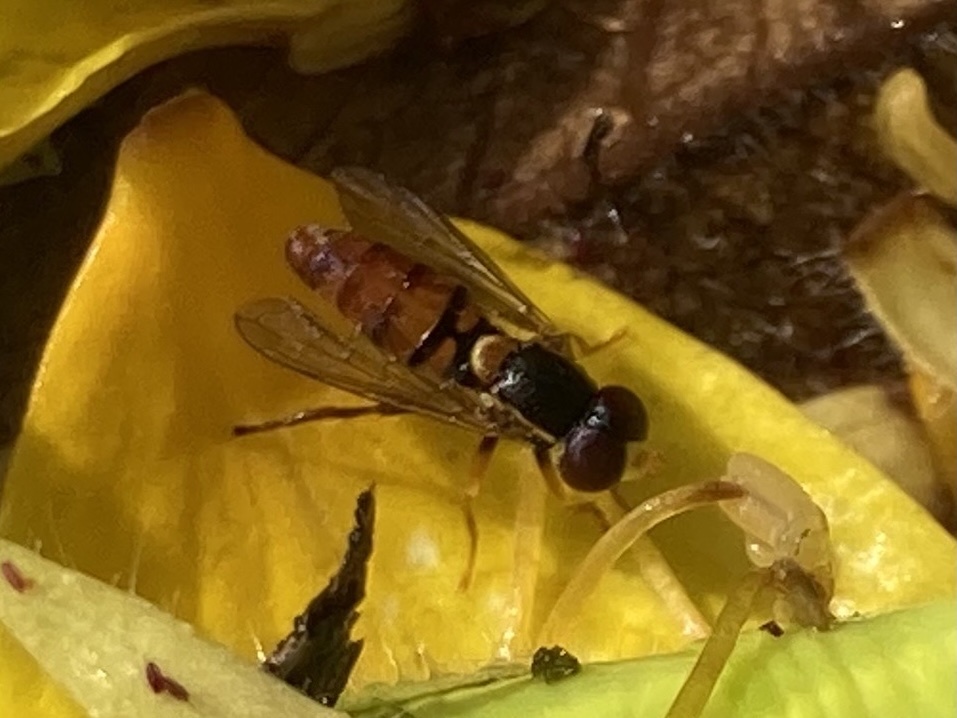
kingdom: Animalia
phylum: Arthropoda
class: Insecta
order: Diptera
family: Syrphidae
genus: Toxomerus
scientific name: Toxomerus jussiaeae
